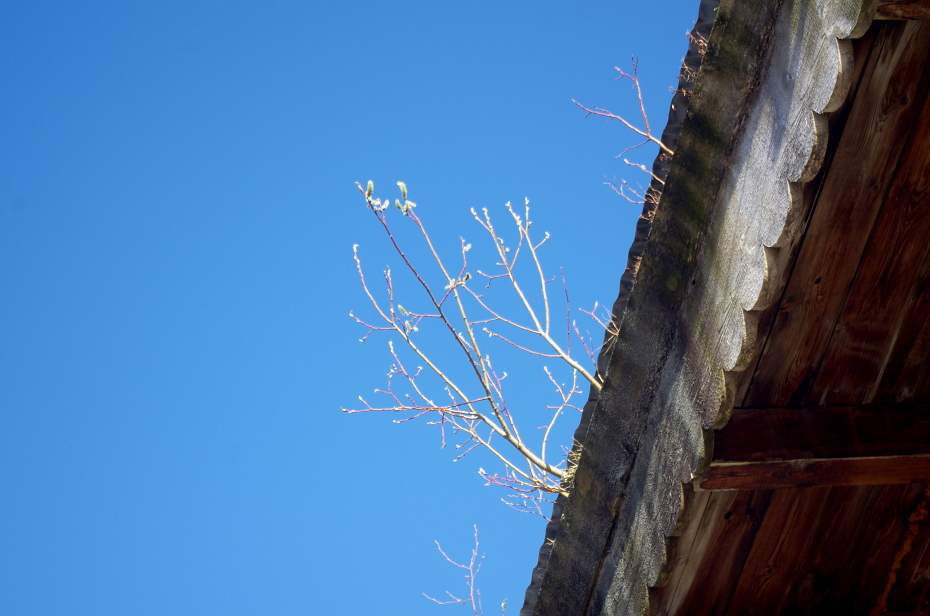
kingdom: Plantae
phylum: Tracheophyta
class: Magnoliopsida
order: Malpighiales
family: Salicaceae
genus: Salix
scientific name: Salix caprea
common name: Goat willow
